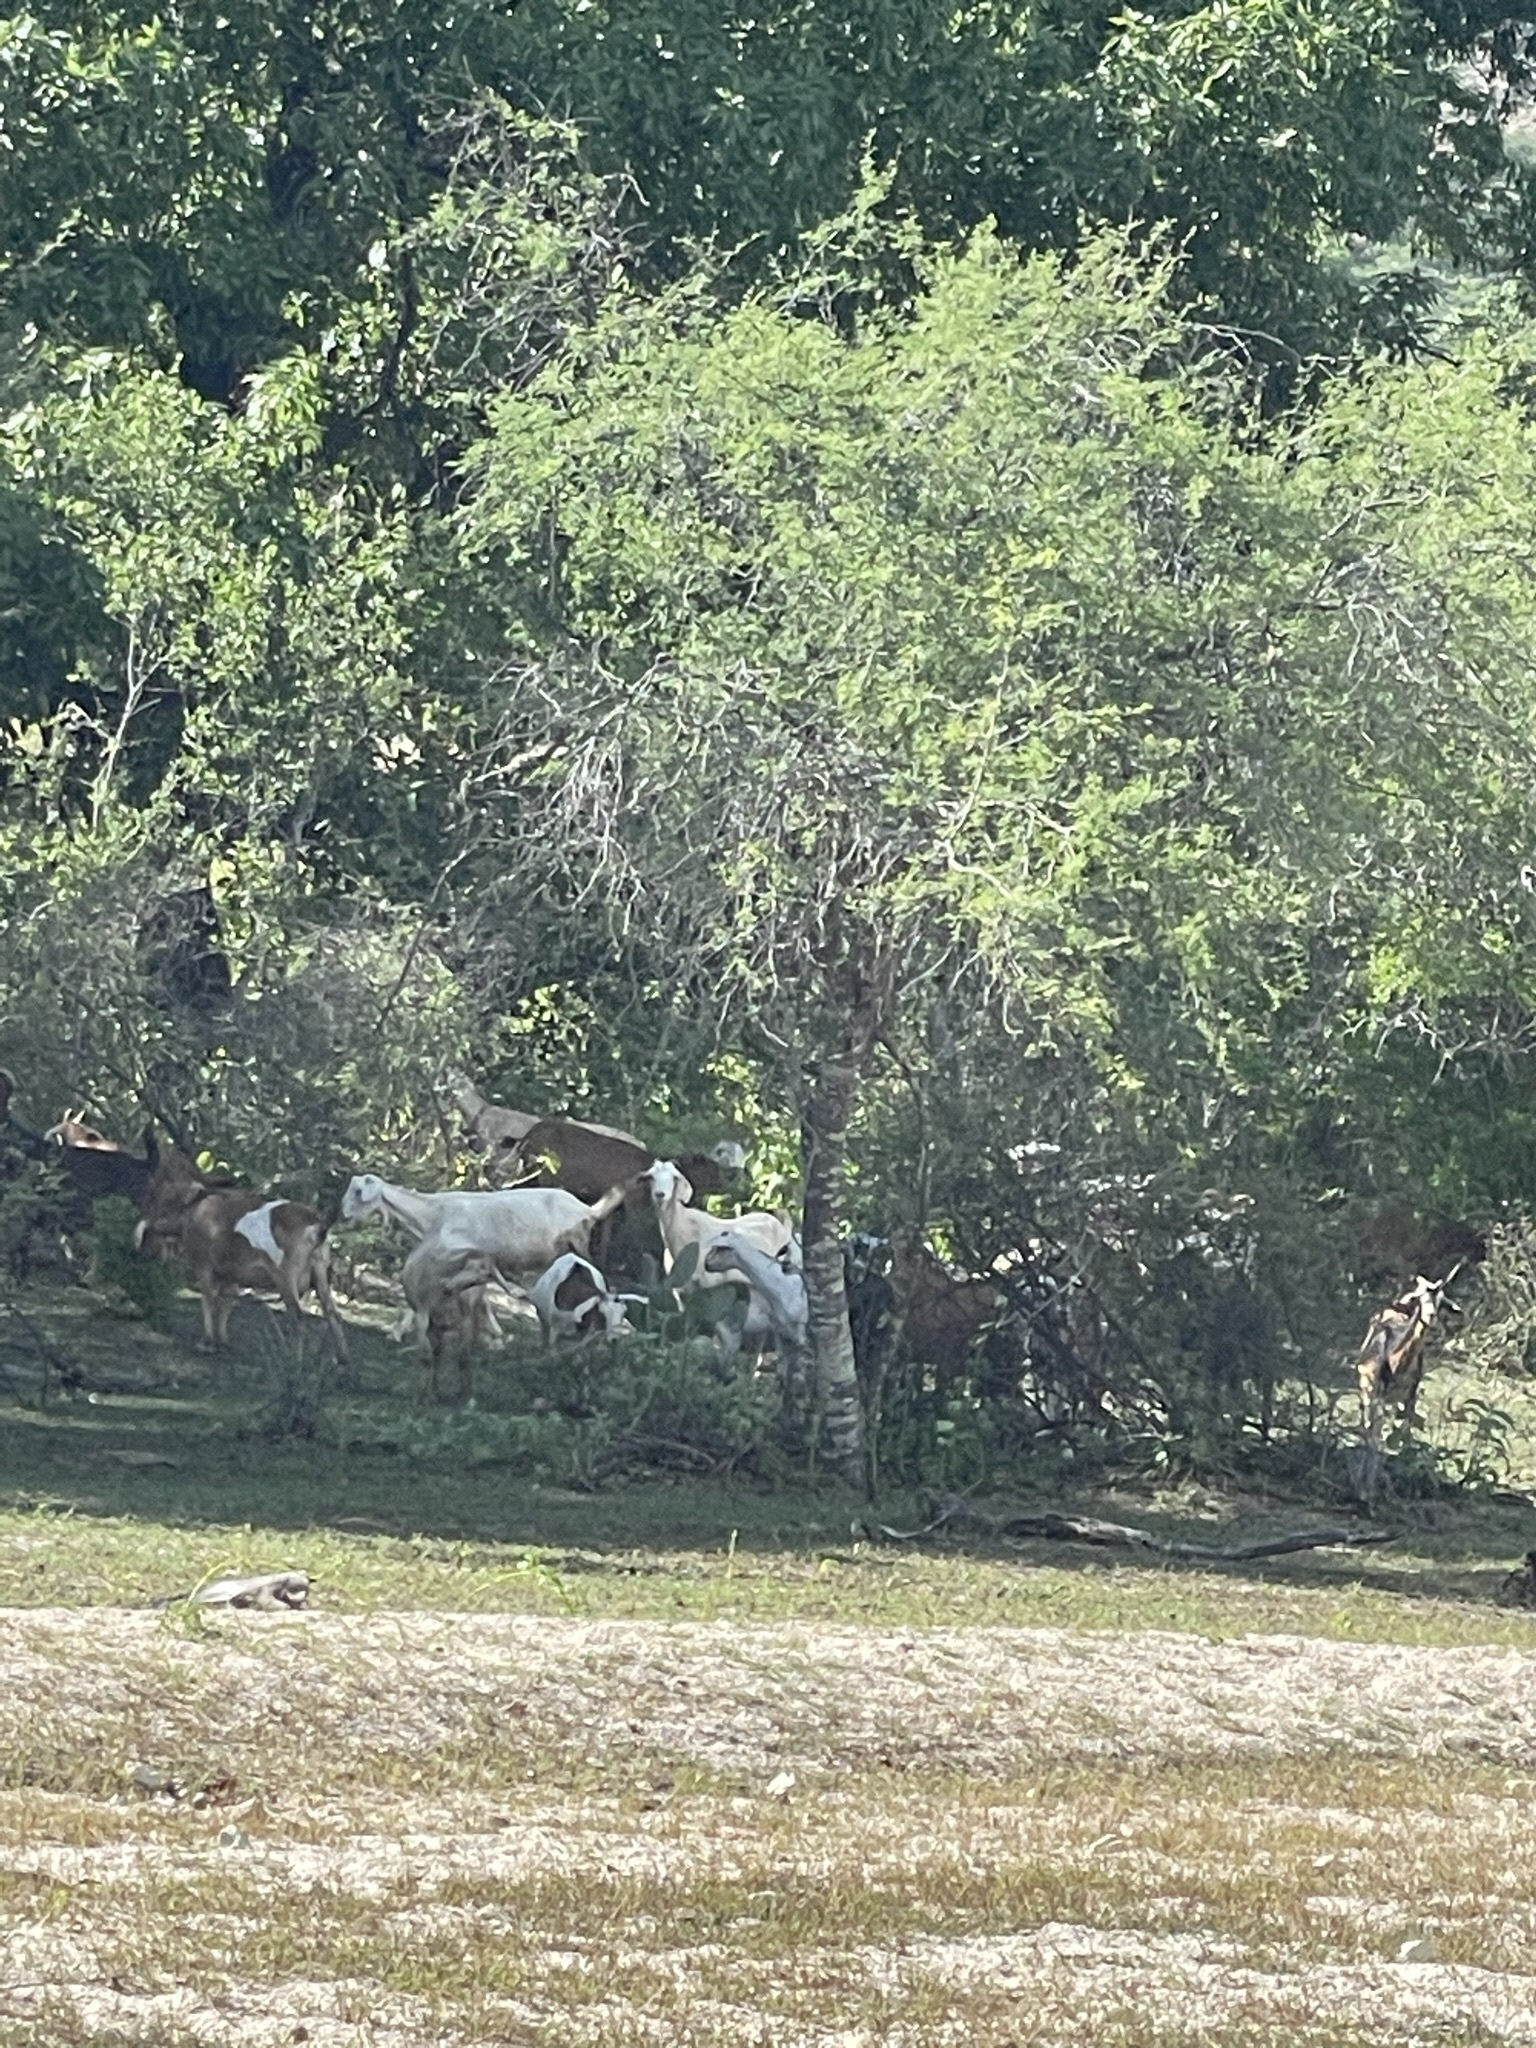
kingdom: Animalia
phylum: Chordata
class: Mammalia
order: Artiodactyla
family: Bovidae
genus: Capra
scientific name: Capra hircus
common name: Domestic goat
